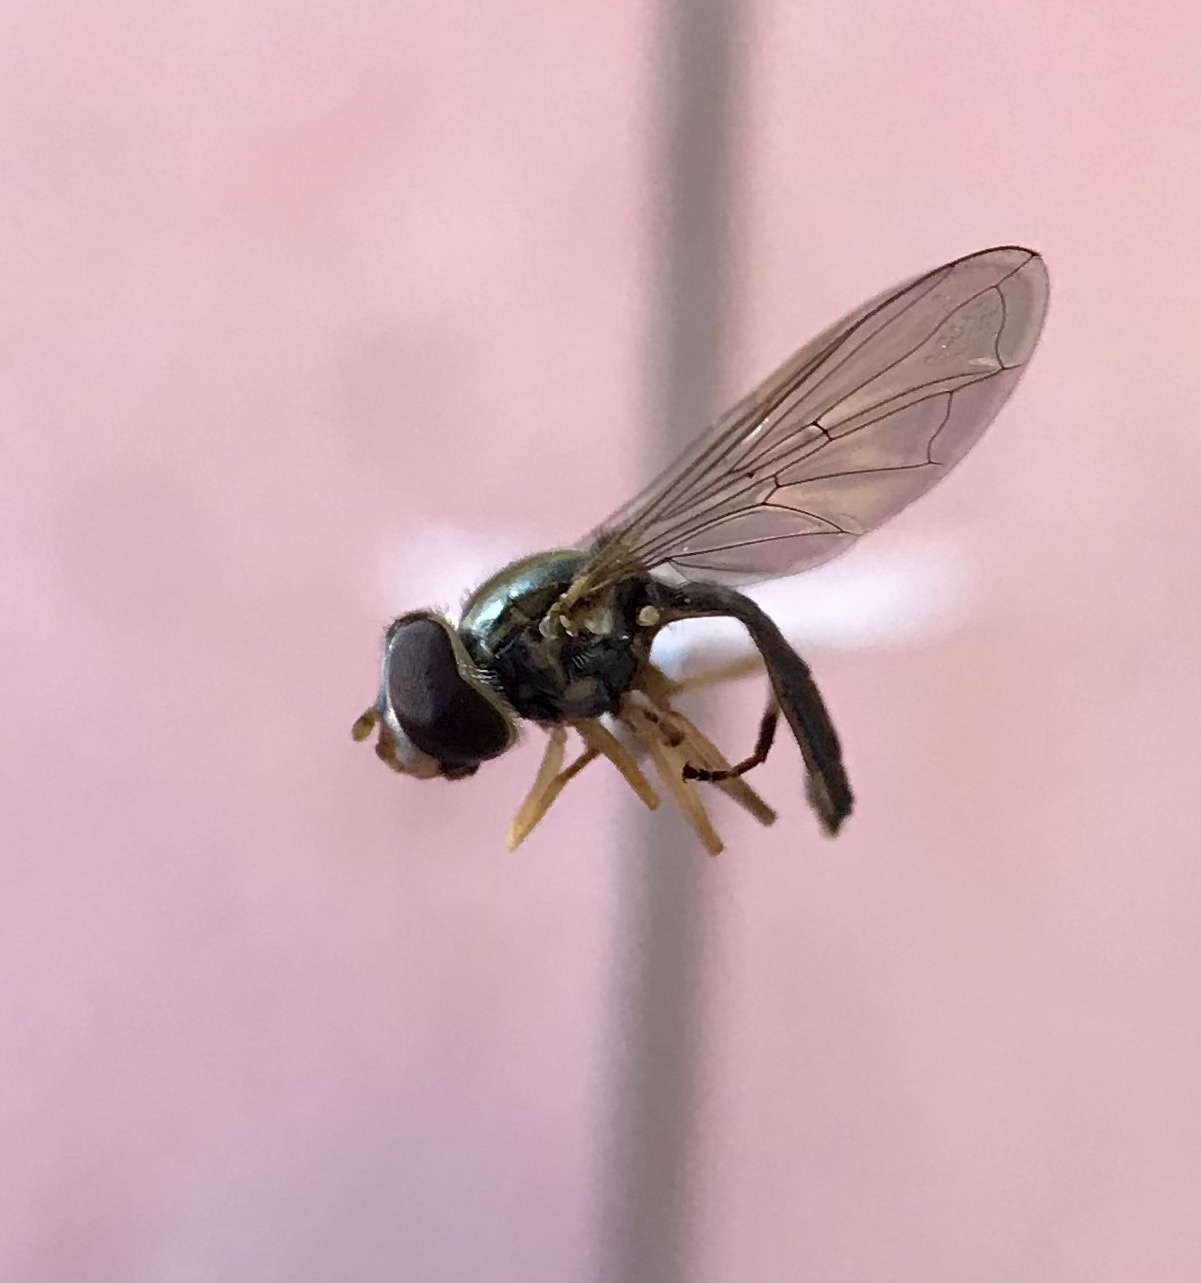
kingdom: Animalia
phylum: Arthropoda
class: Insecta
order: Diptera
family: Syrphidae
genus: Toxomerus
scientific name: Toxomerus marginatus
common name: Syrphid fly
